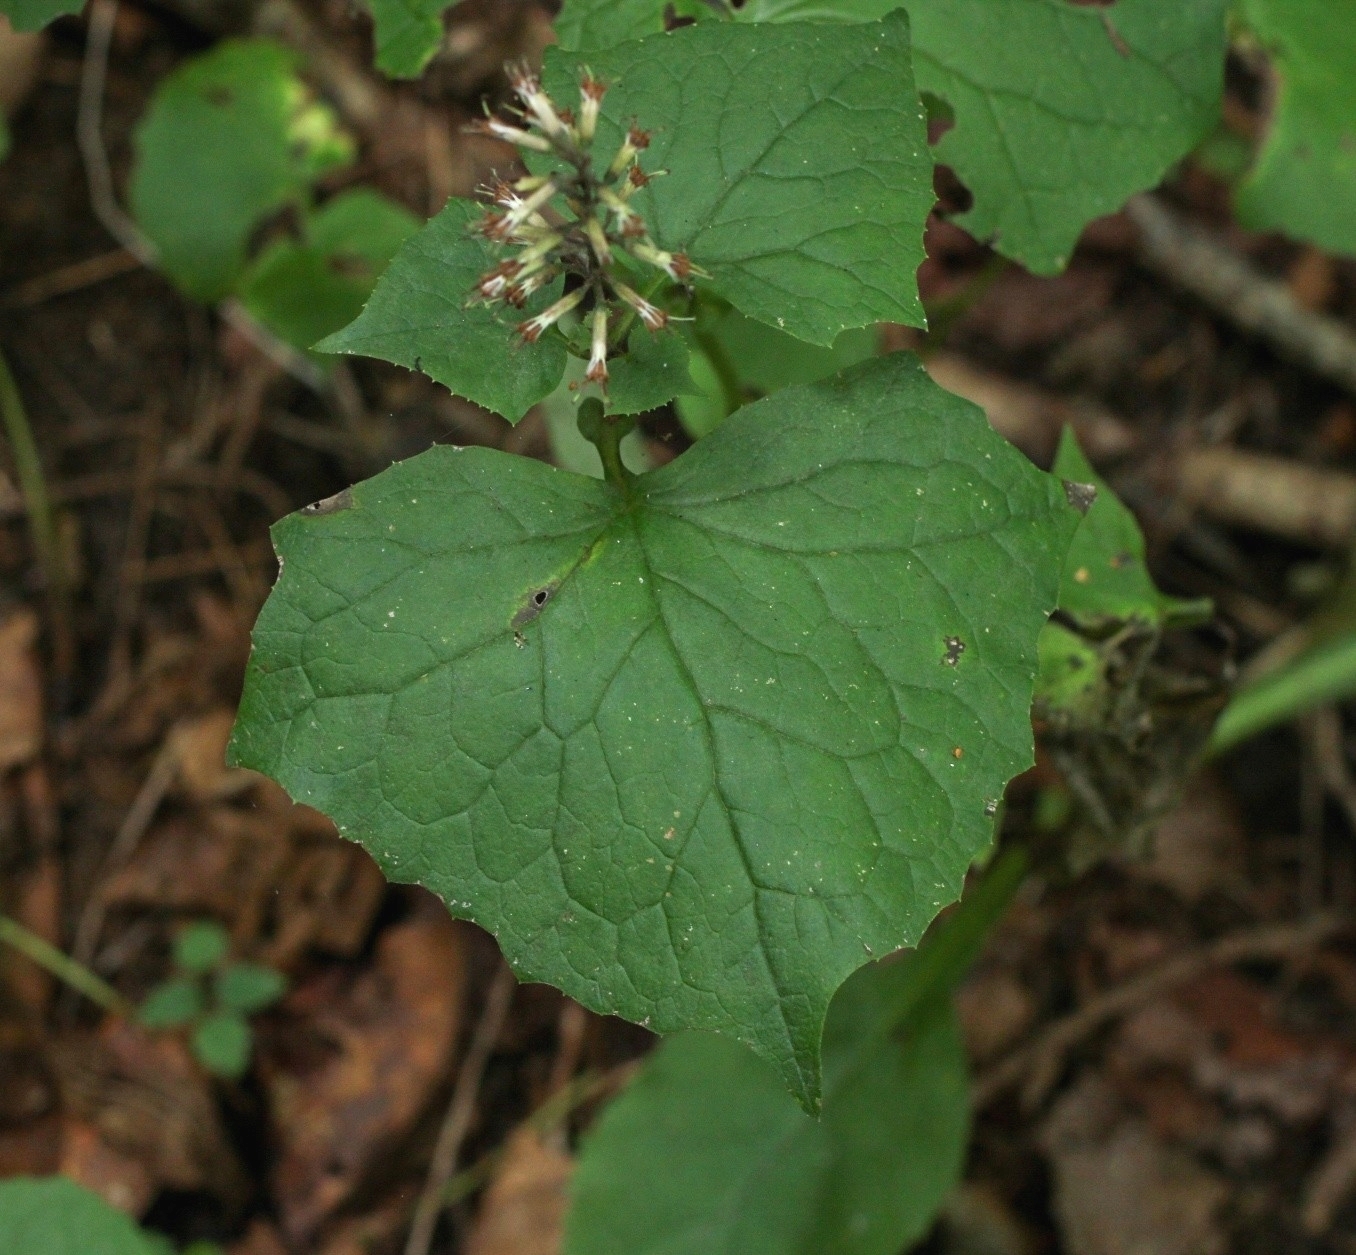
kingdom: Plantae
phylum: Tracheophyta
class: Magnoliopsida
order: Asterales
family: Asteraceae
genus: Parasenecio
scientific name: Parasenecio praetermissus
